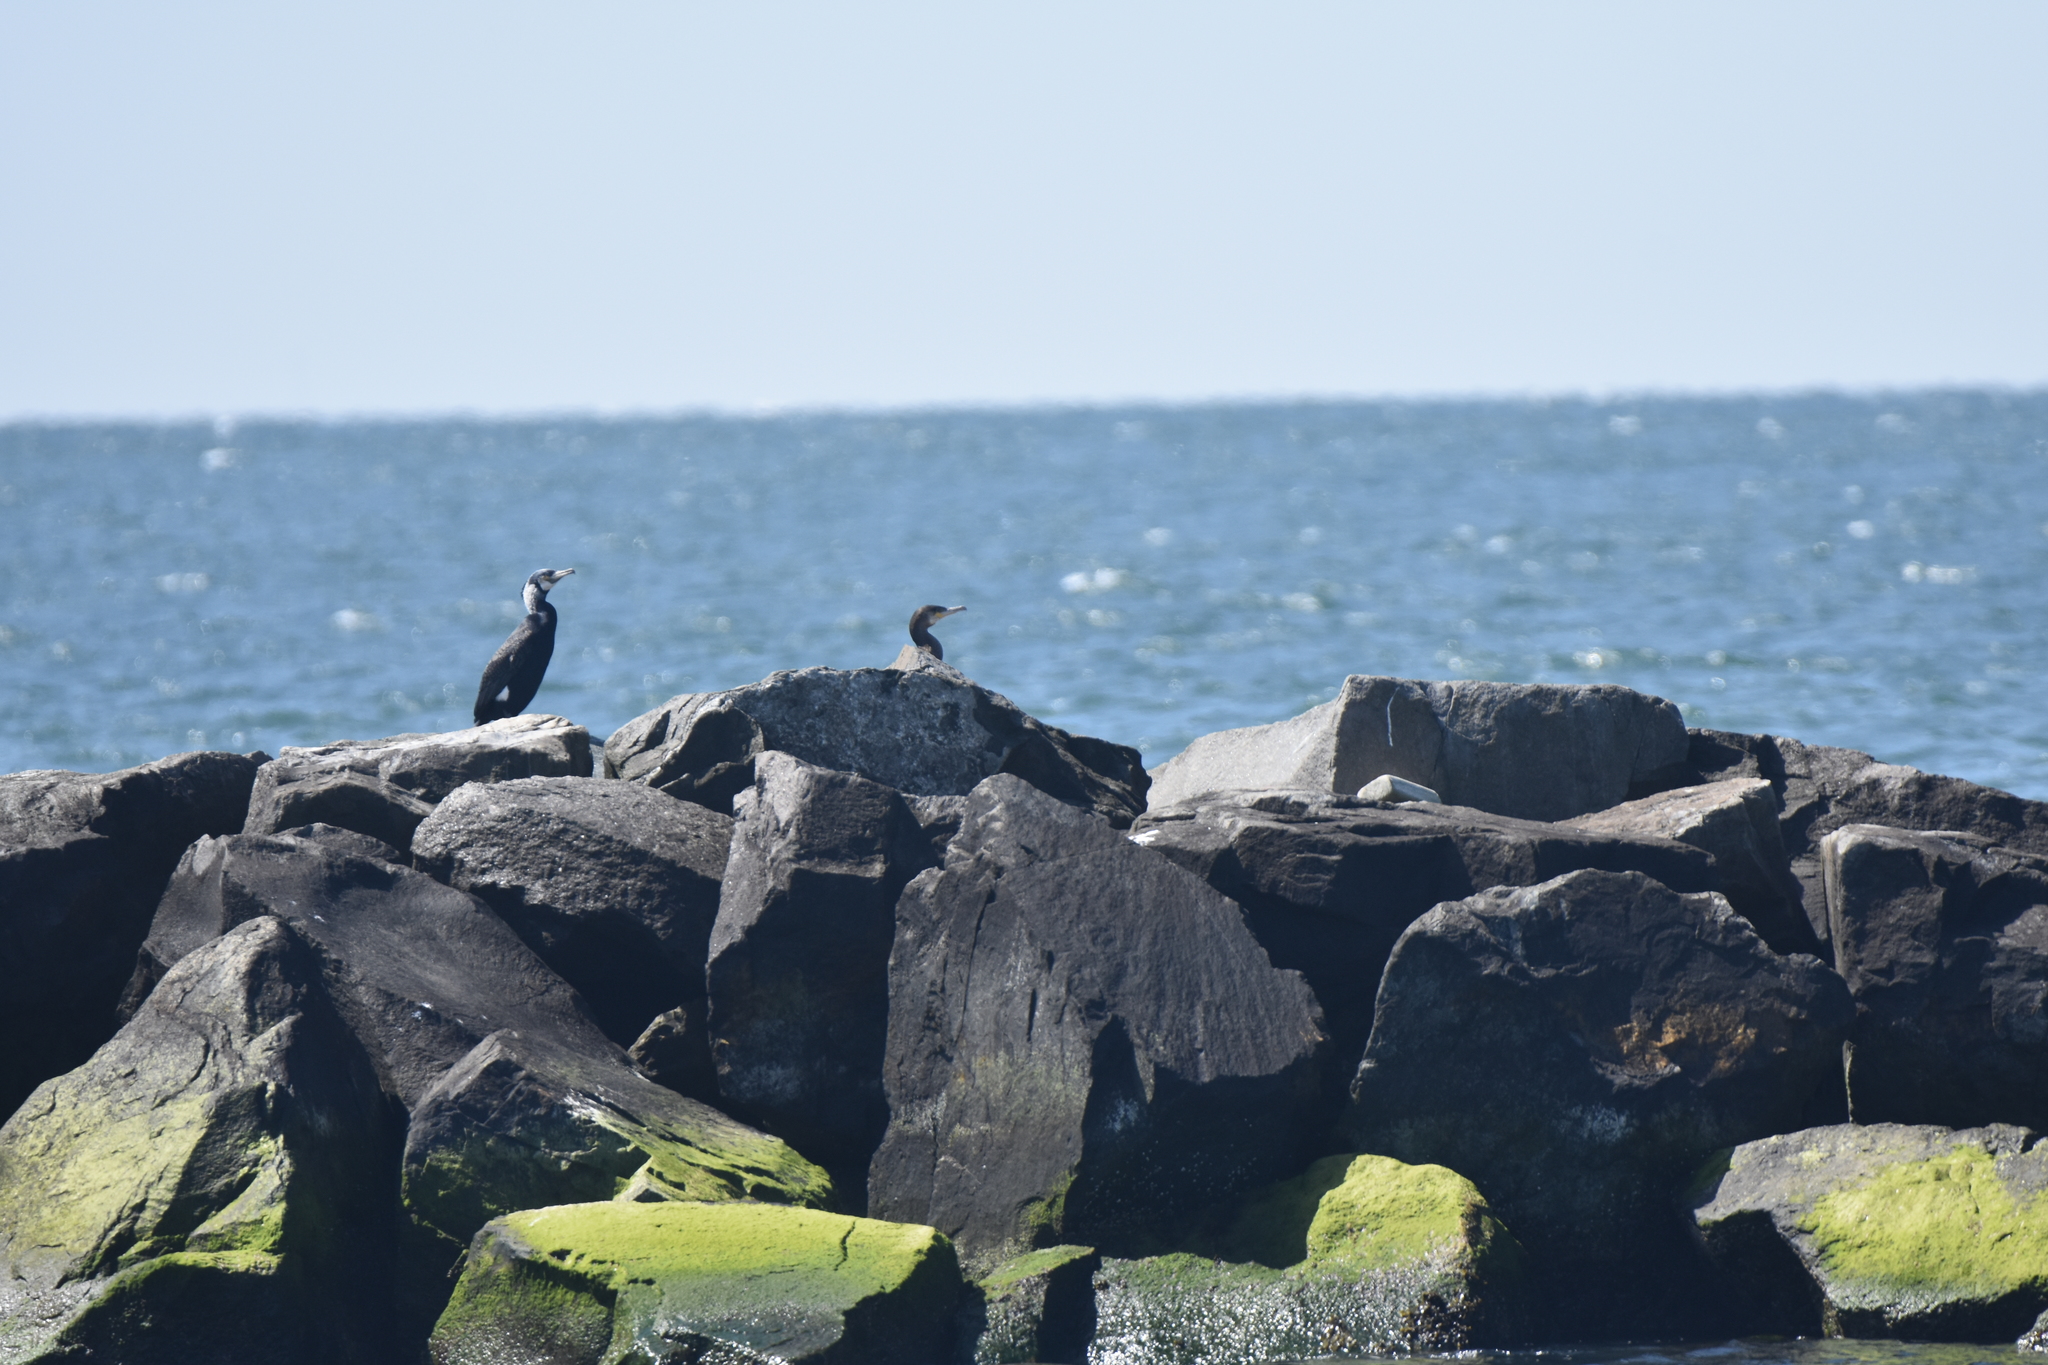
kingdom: Animalia
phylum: Chordata
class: Aves
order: Suliformes
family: Phalacrocoracidae
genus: Phalacrocorax
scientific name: Phalacrocorax carbo
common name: Great cormorant
